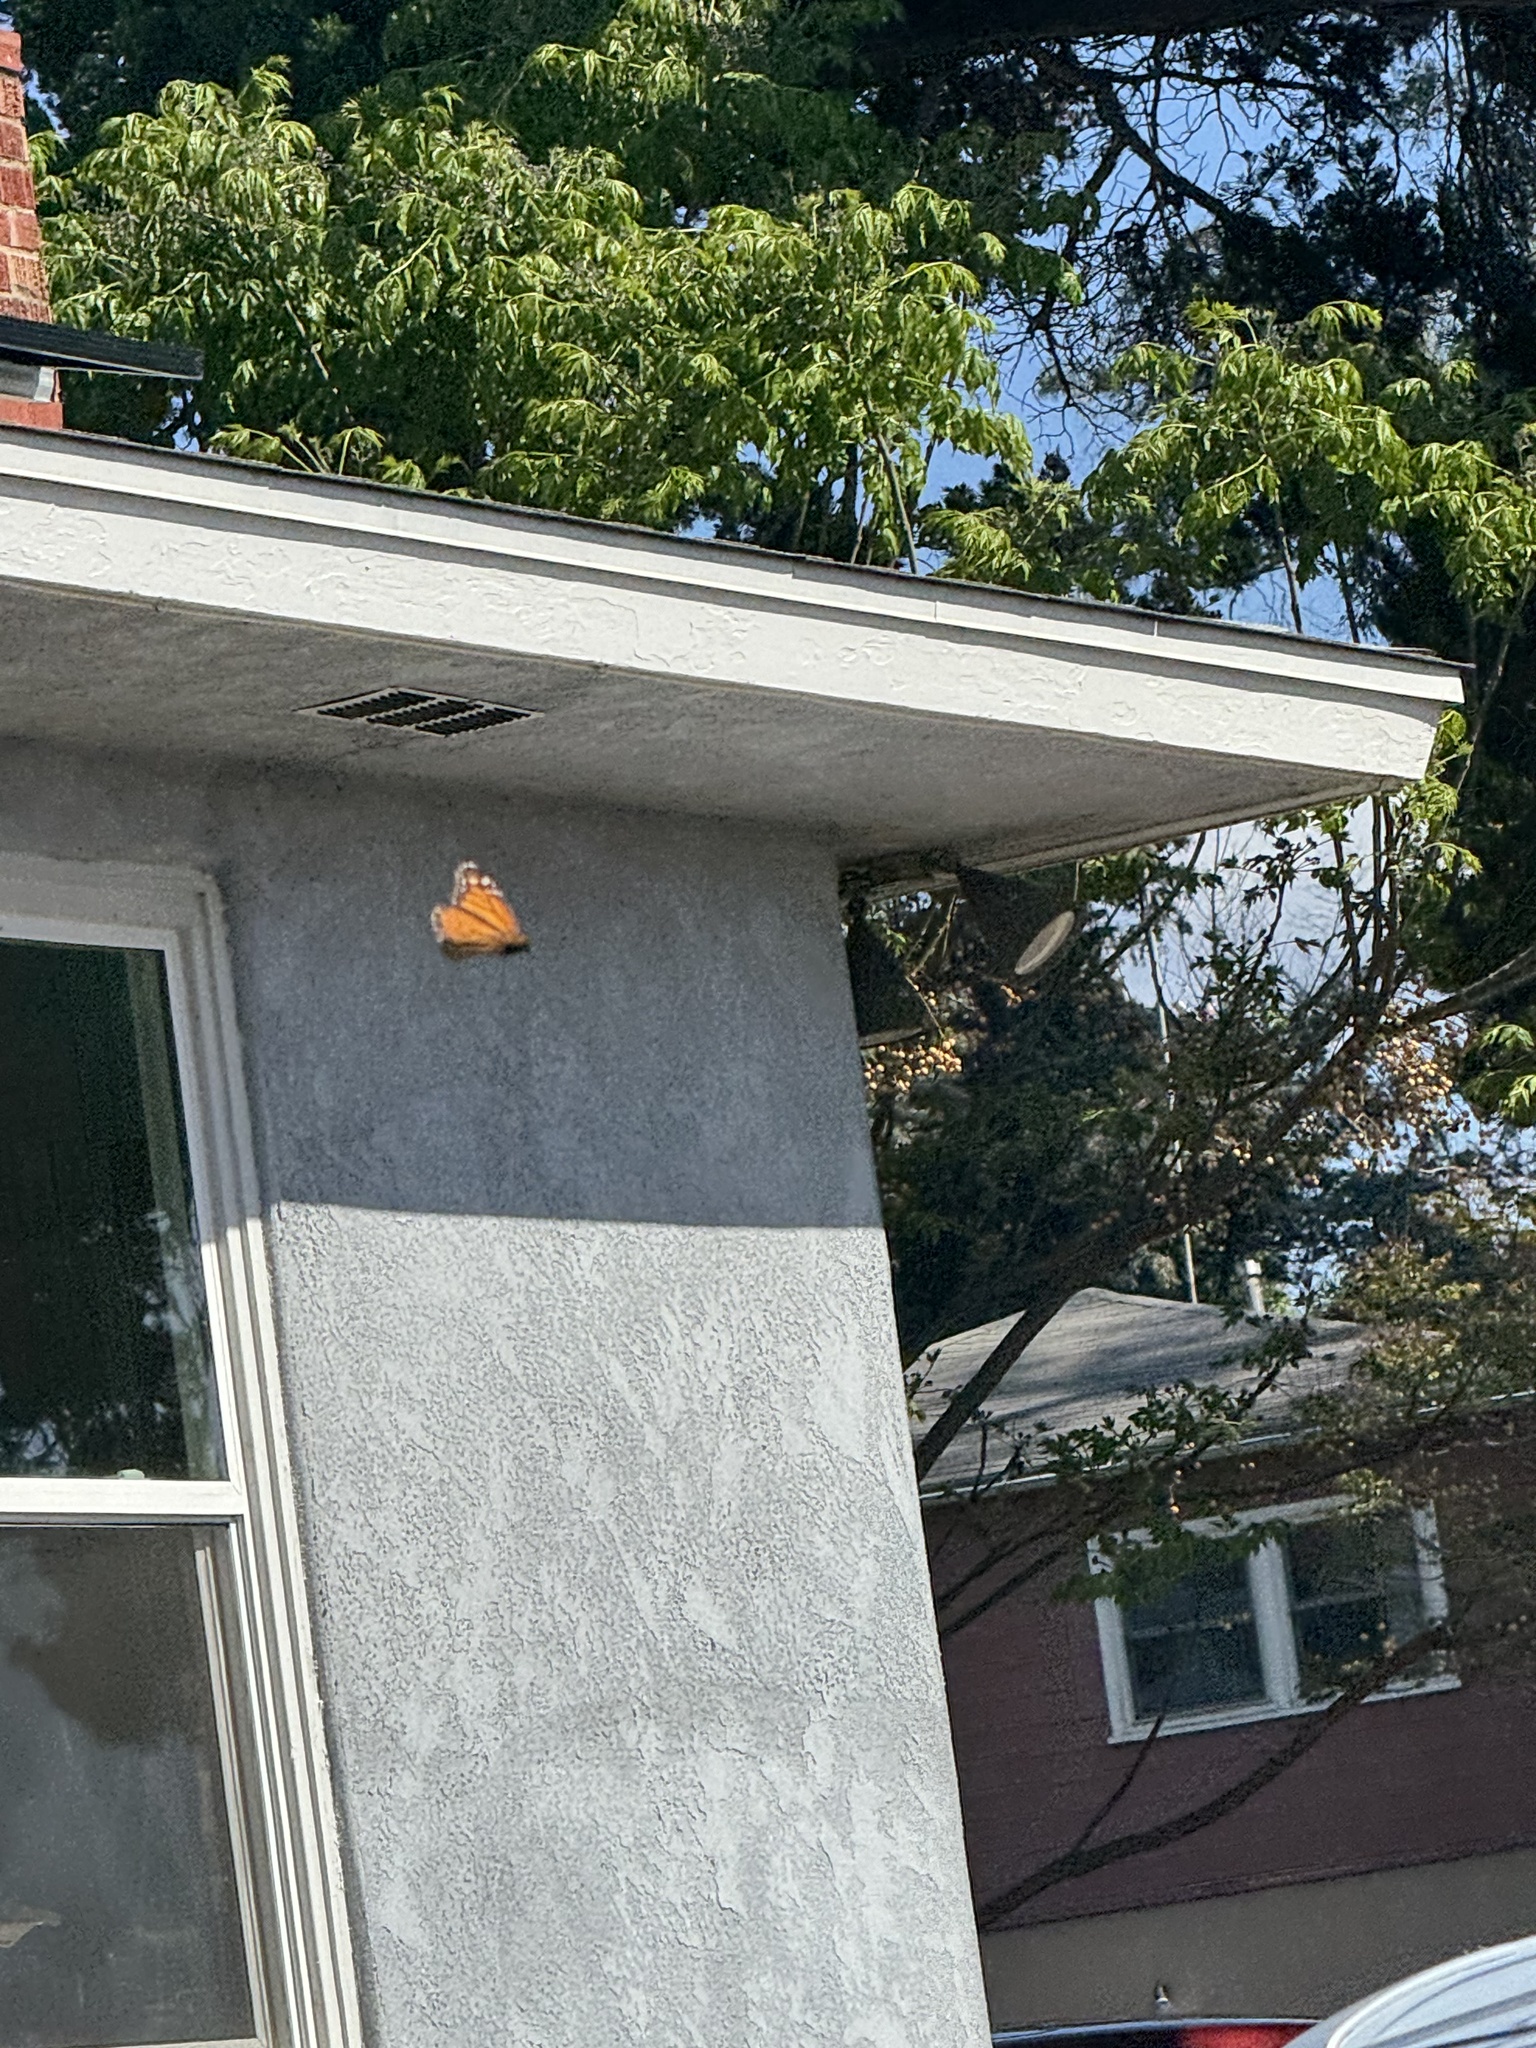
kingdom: Animalia
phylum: Arthropoda
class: Insecta
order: Lepidoptera
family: Nymphalidae
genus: Danaus
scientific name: Danaus plexippus
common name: Monarch
